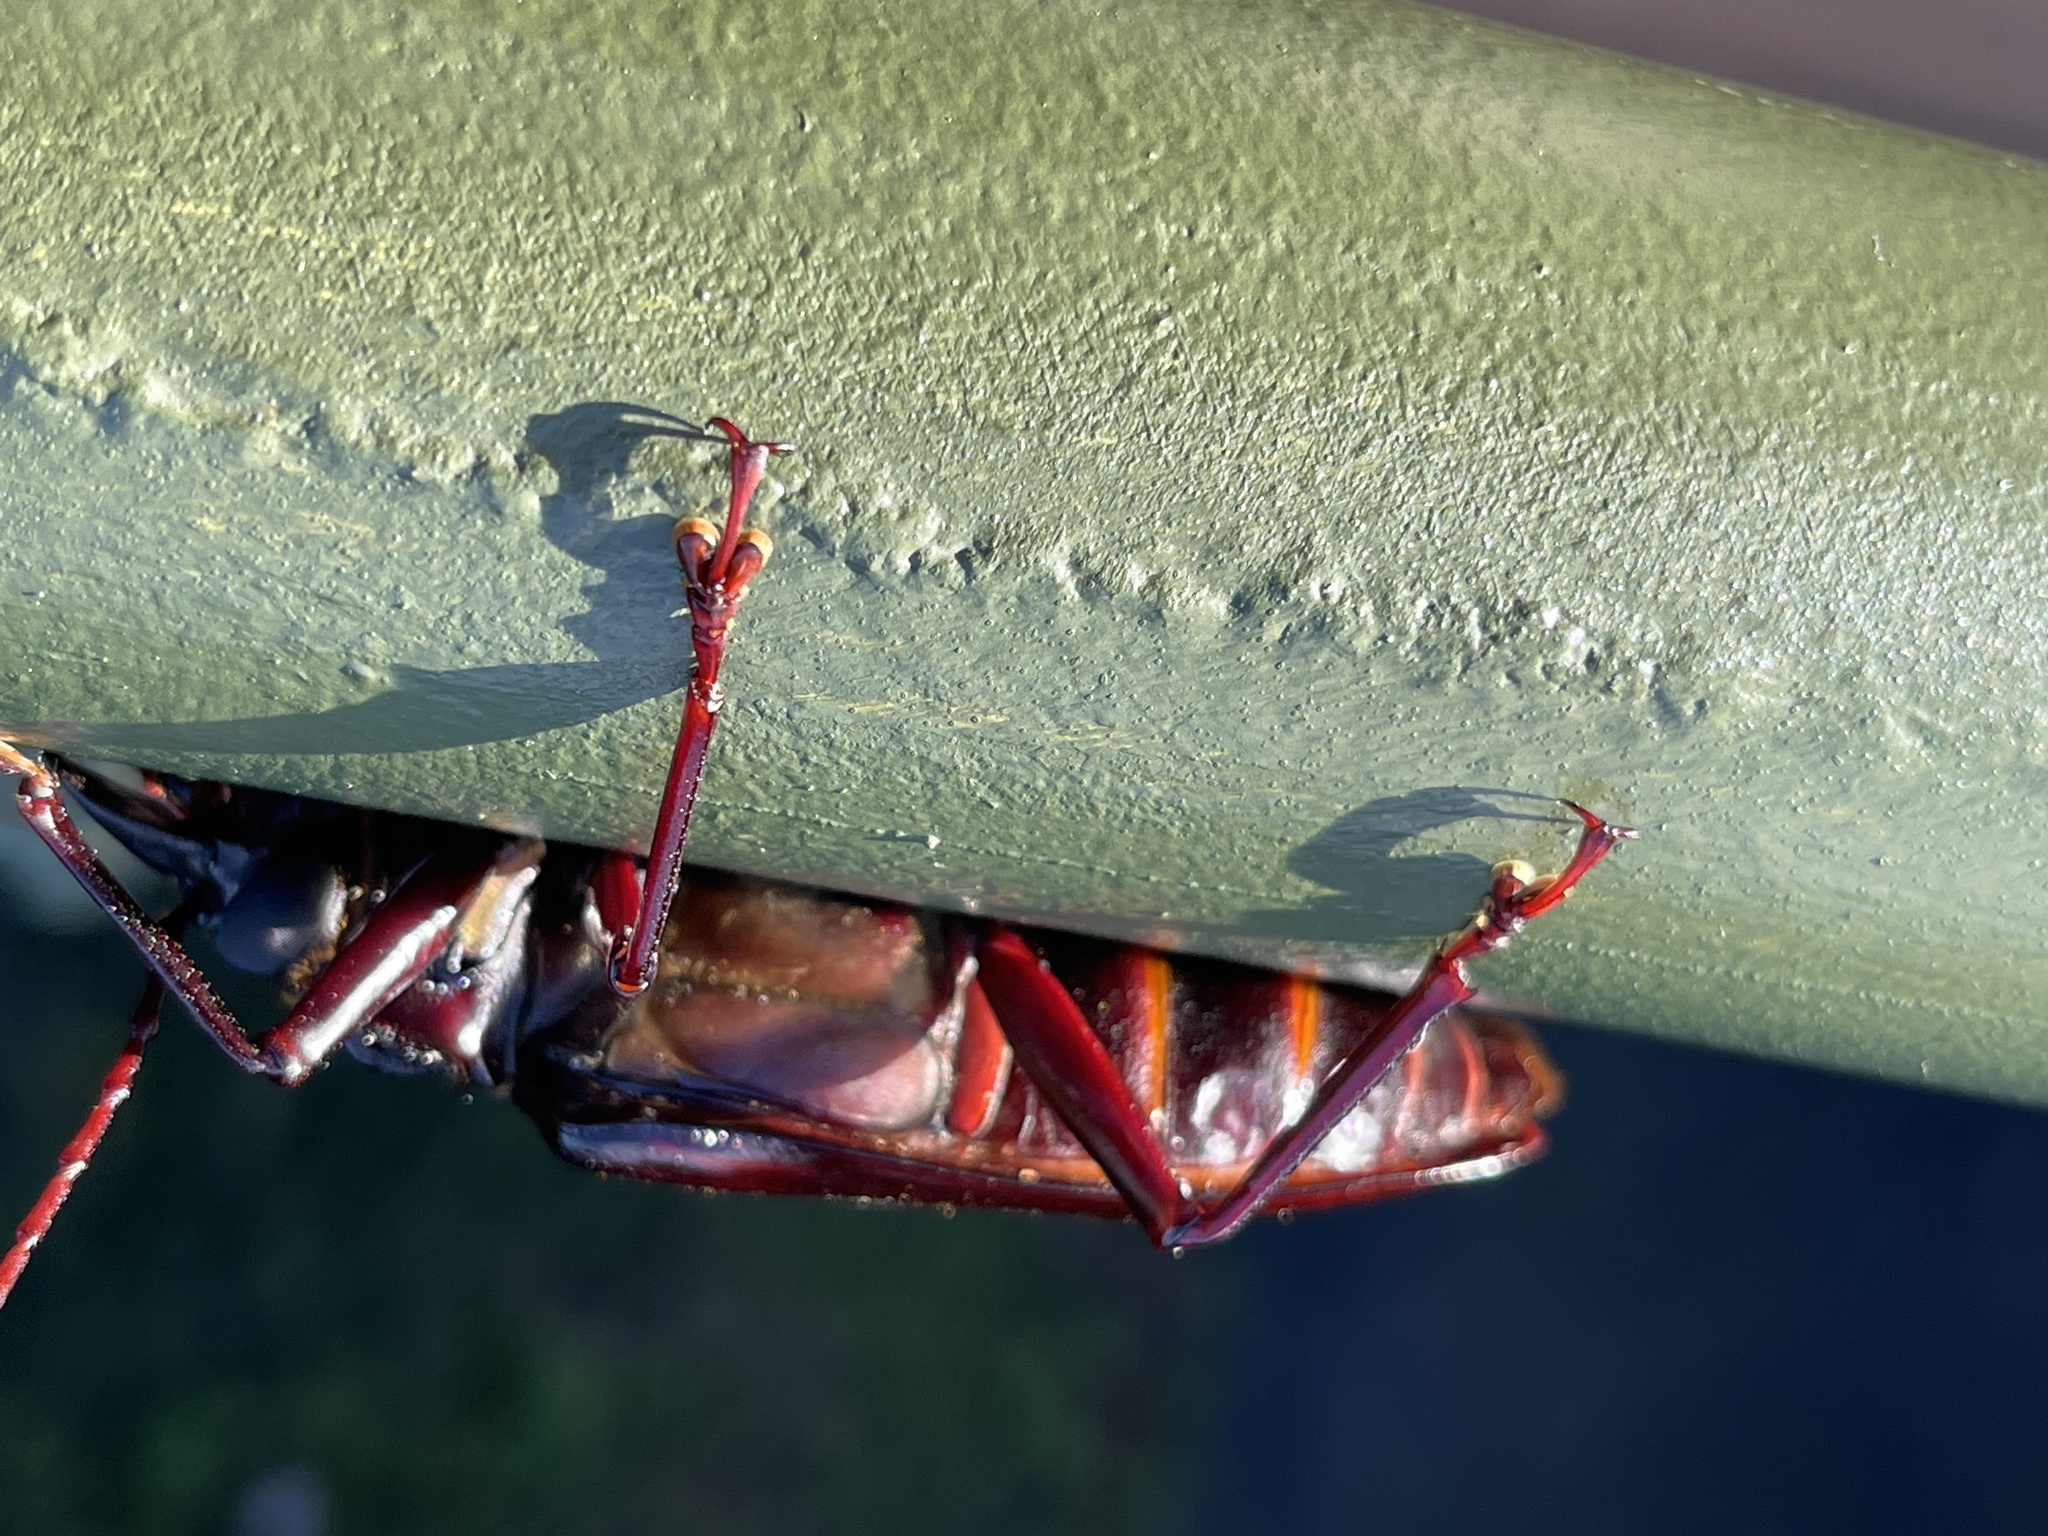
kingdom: Animalia
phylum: Arthropoda
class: Insecta
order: Coleoptera
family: Cerambycidae
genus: Stenodontes
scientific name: Stenodontes exsertus
